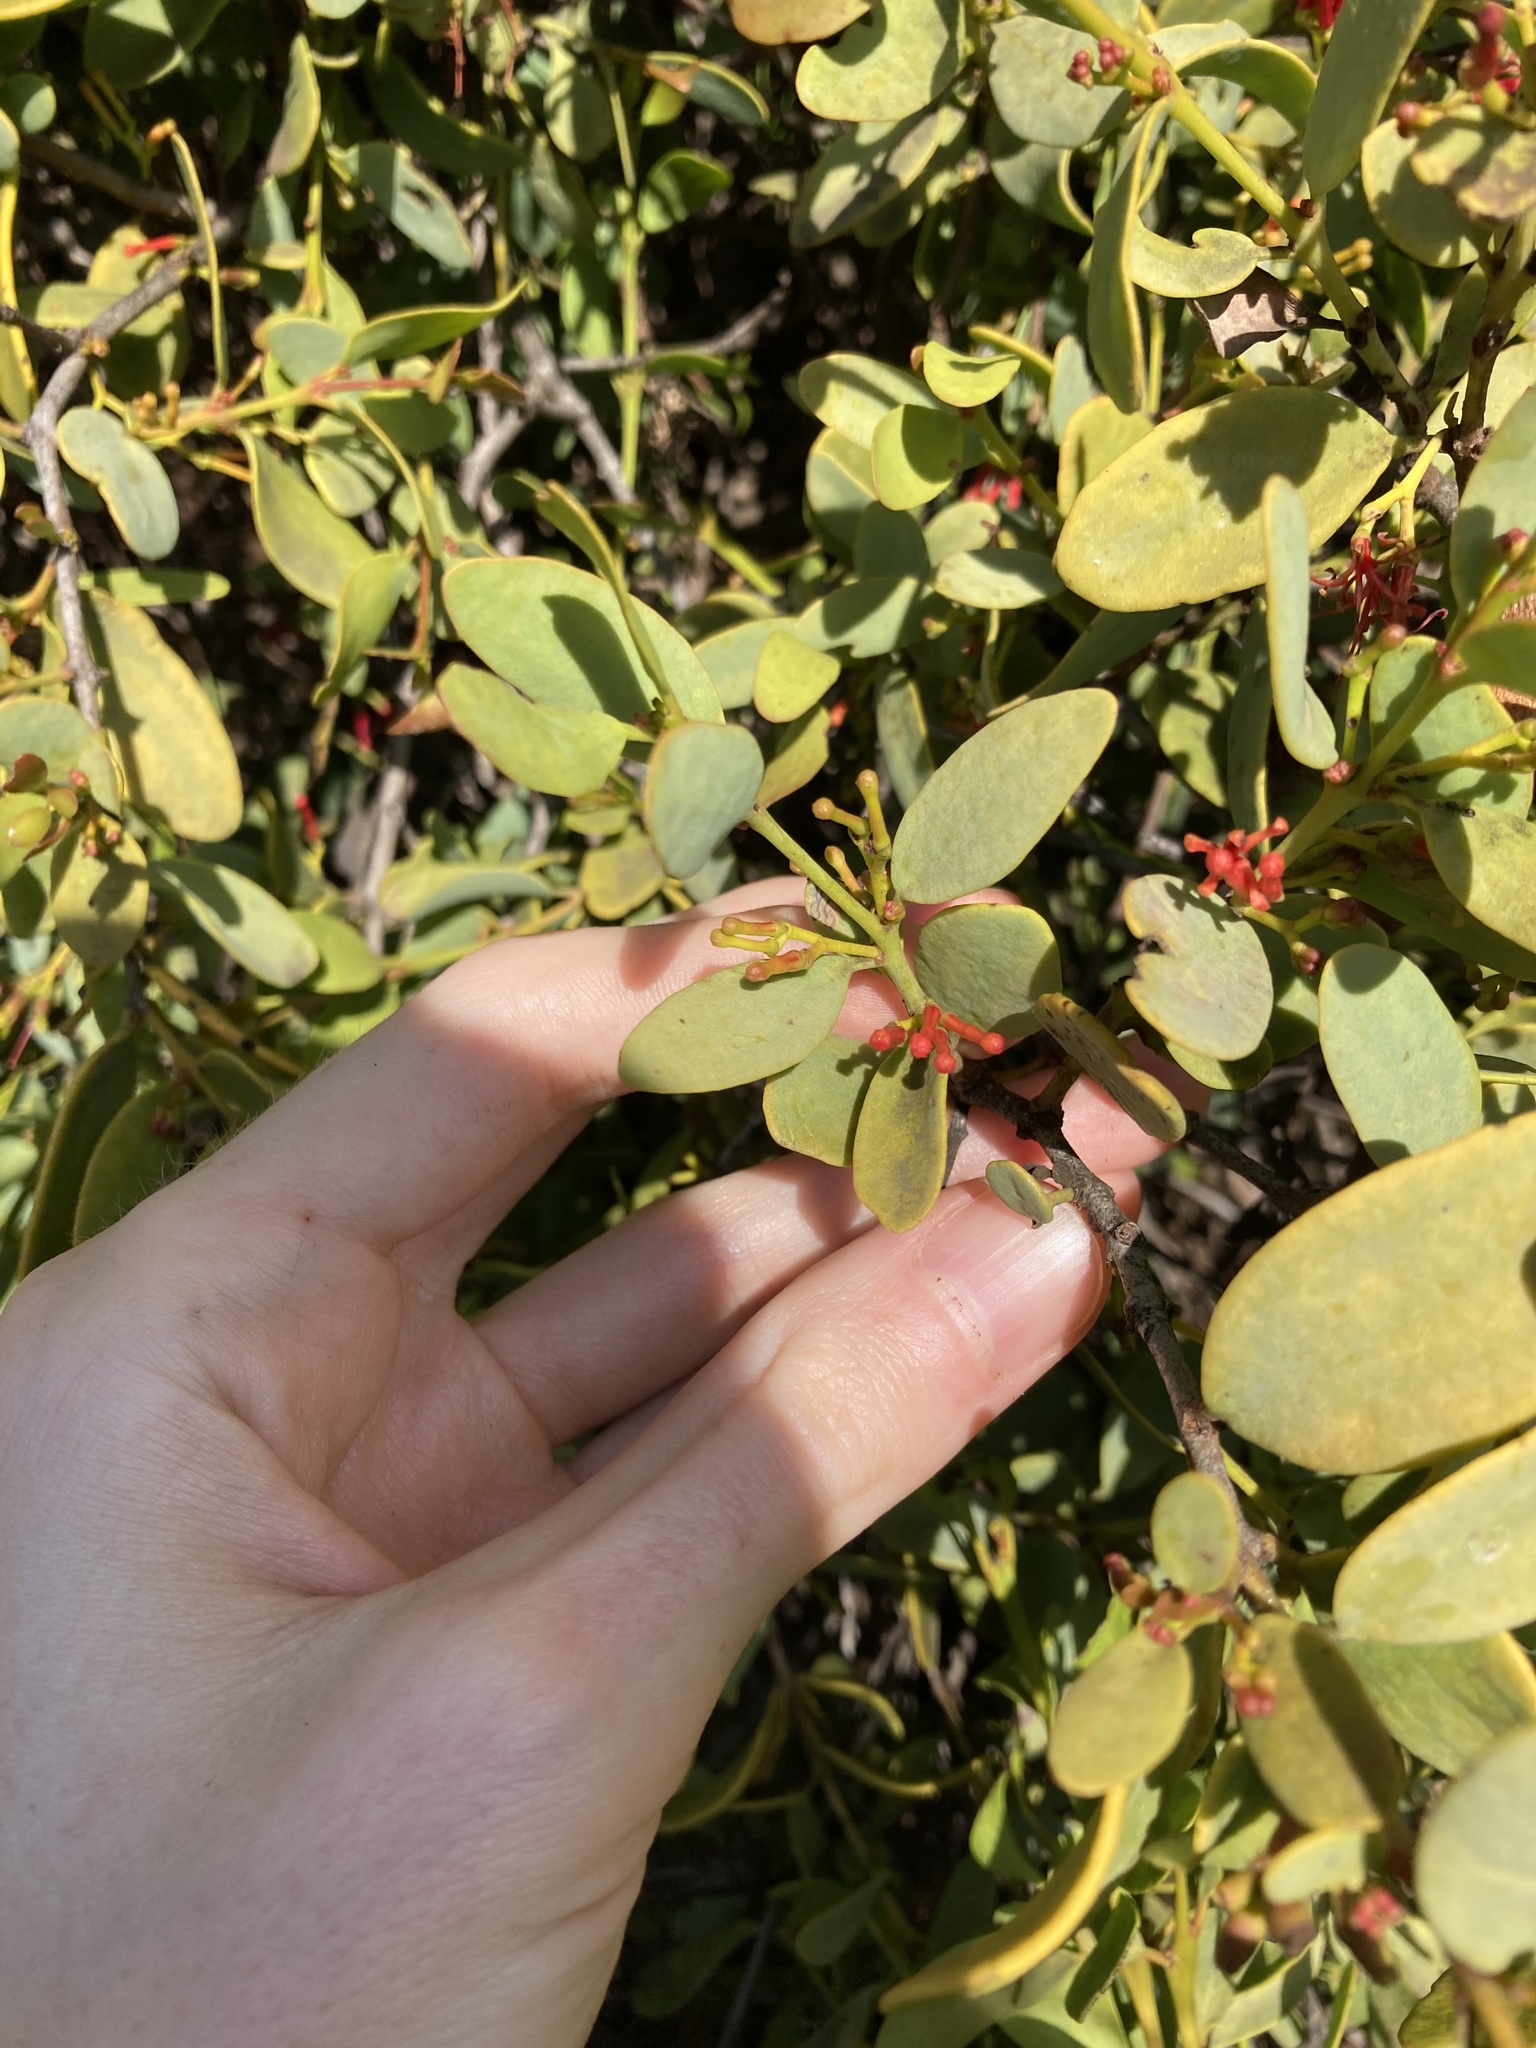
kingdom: Plantae
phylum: Tracheophyta
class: Magnoliopsida
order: Santalales
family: Loranthaceae
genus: Amyema
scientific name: Amyema miraculosa
